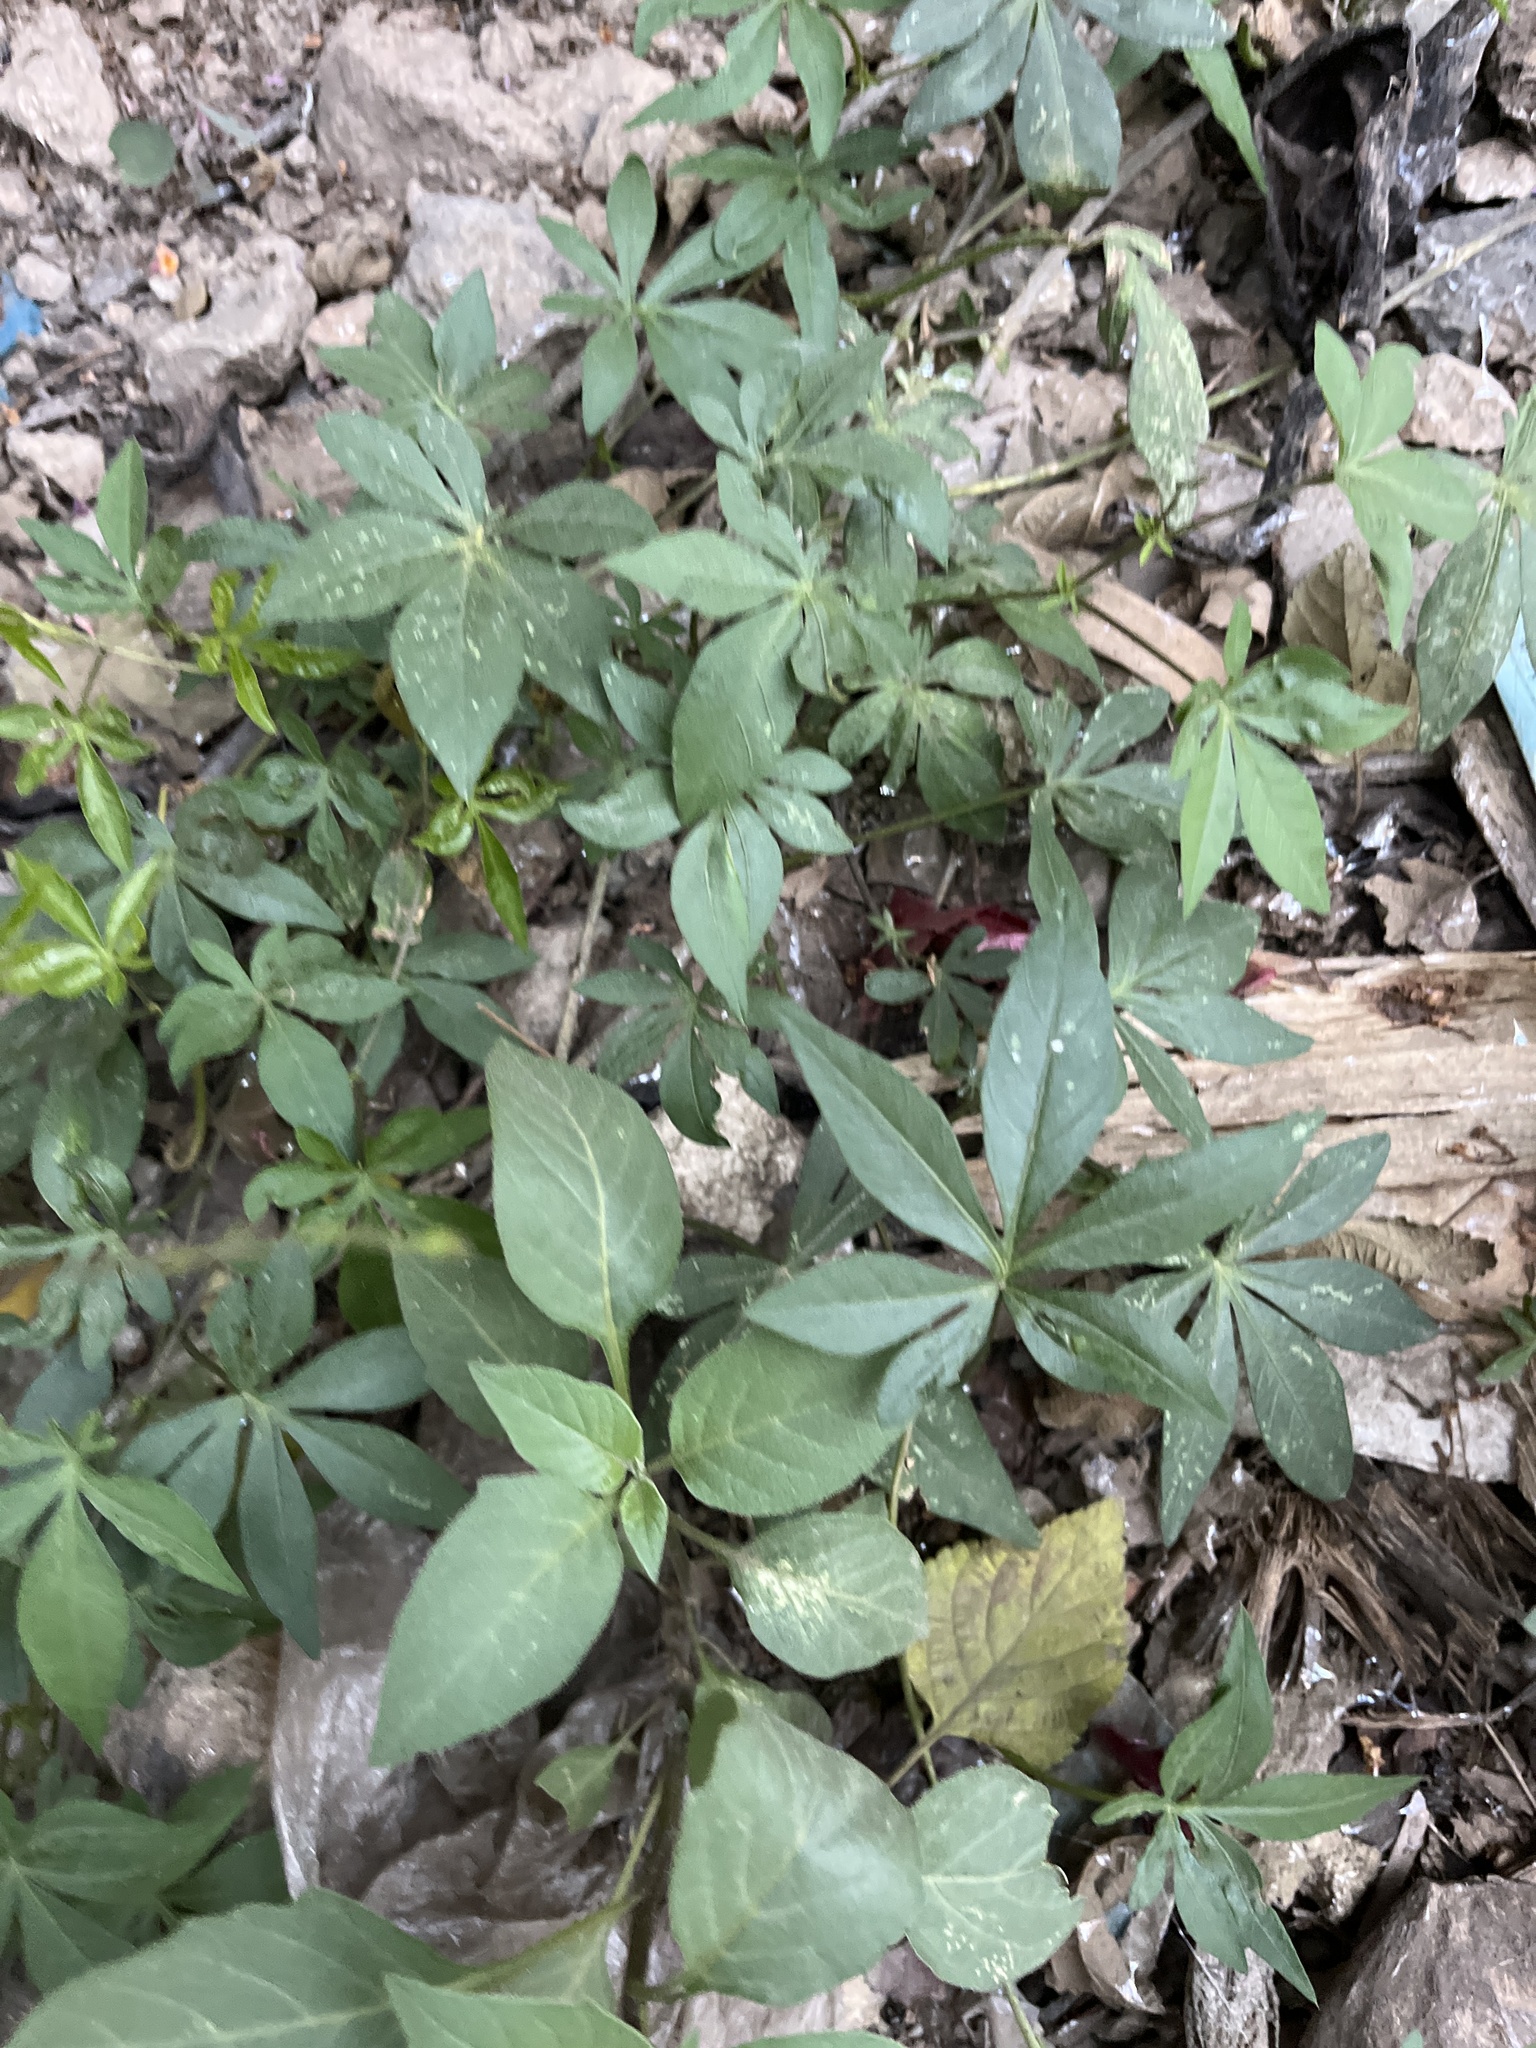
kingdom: Plantae
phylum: Tracheophyta
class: Magnoliopsida
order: Solanales
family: Convolvulaceae
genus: Ipomoea
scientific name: Ipomoea cairica
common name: Mile a minute vine
